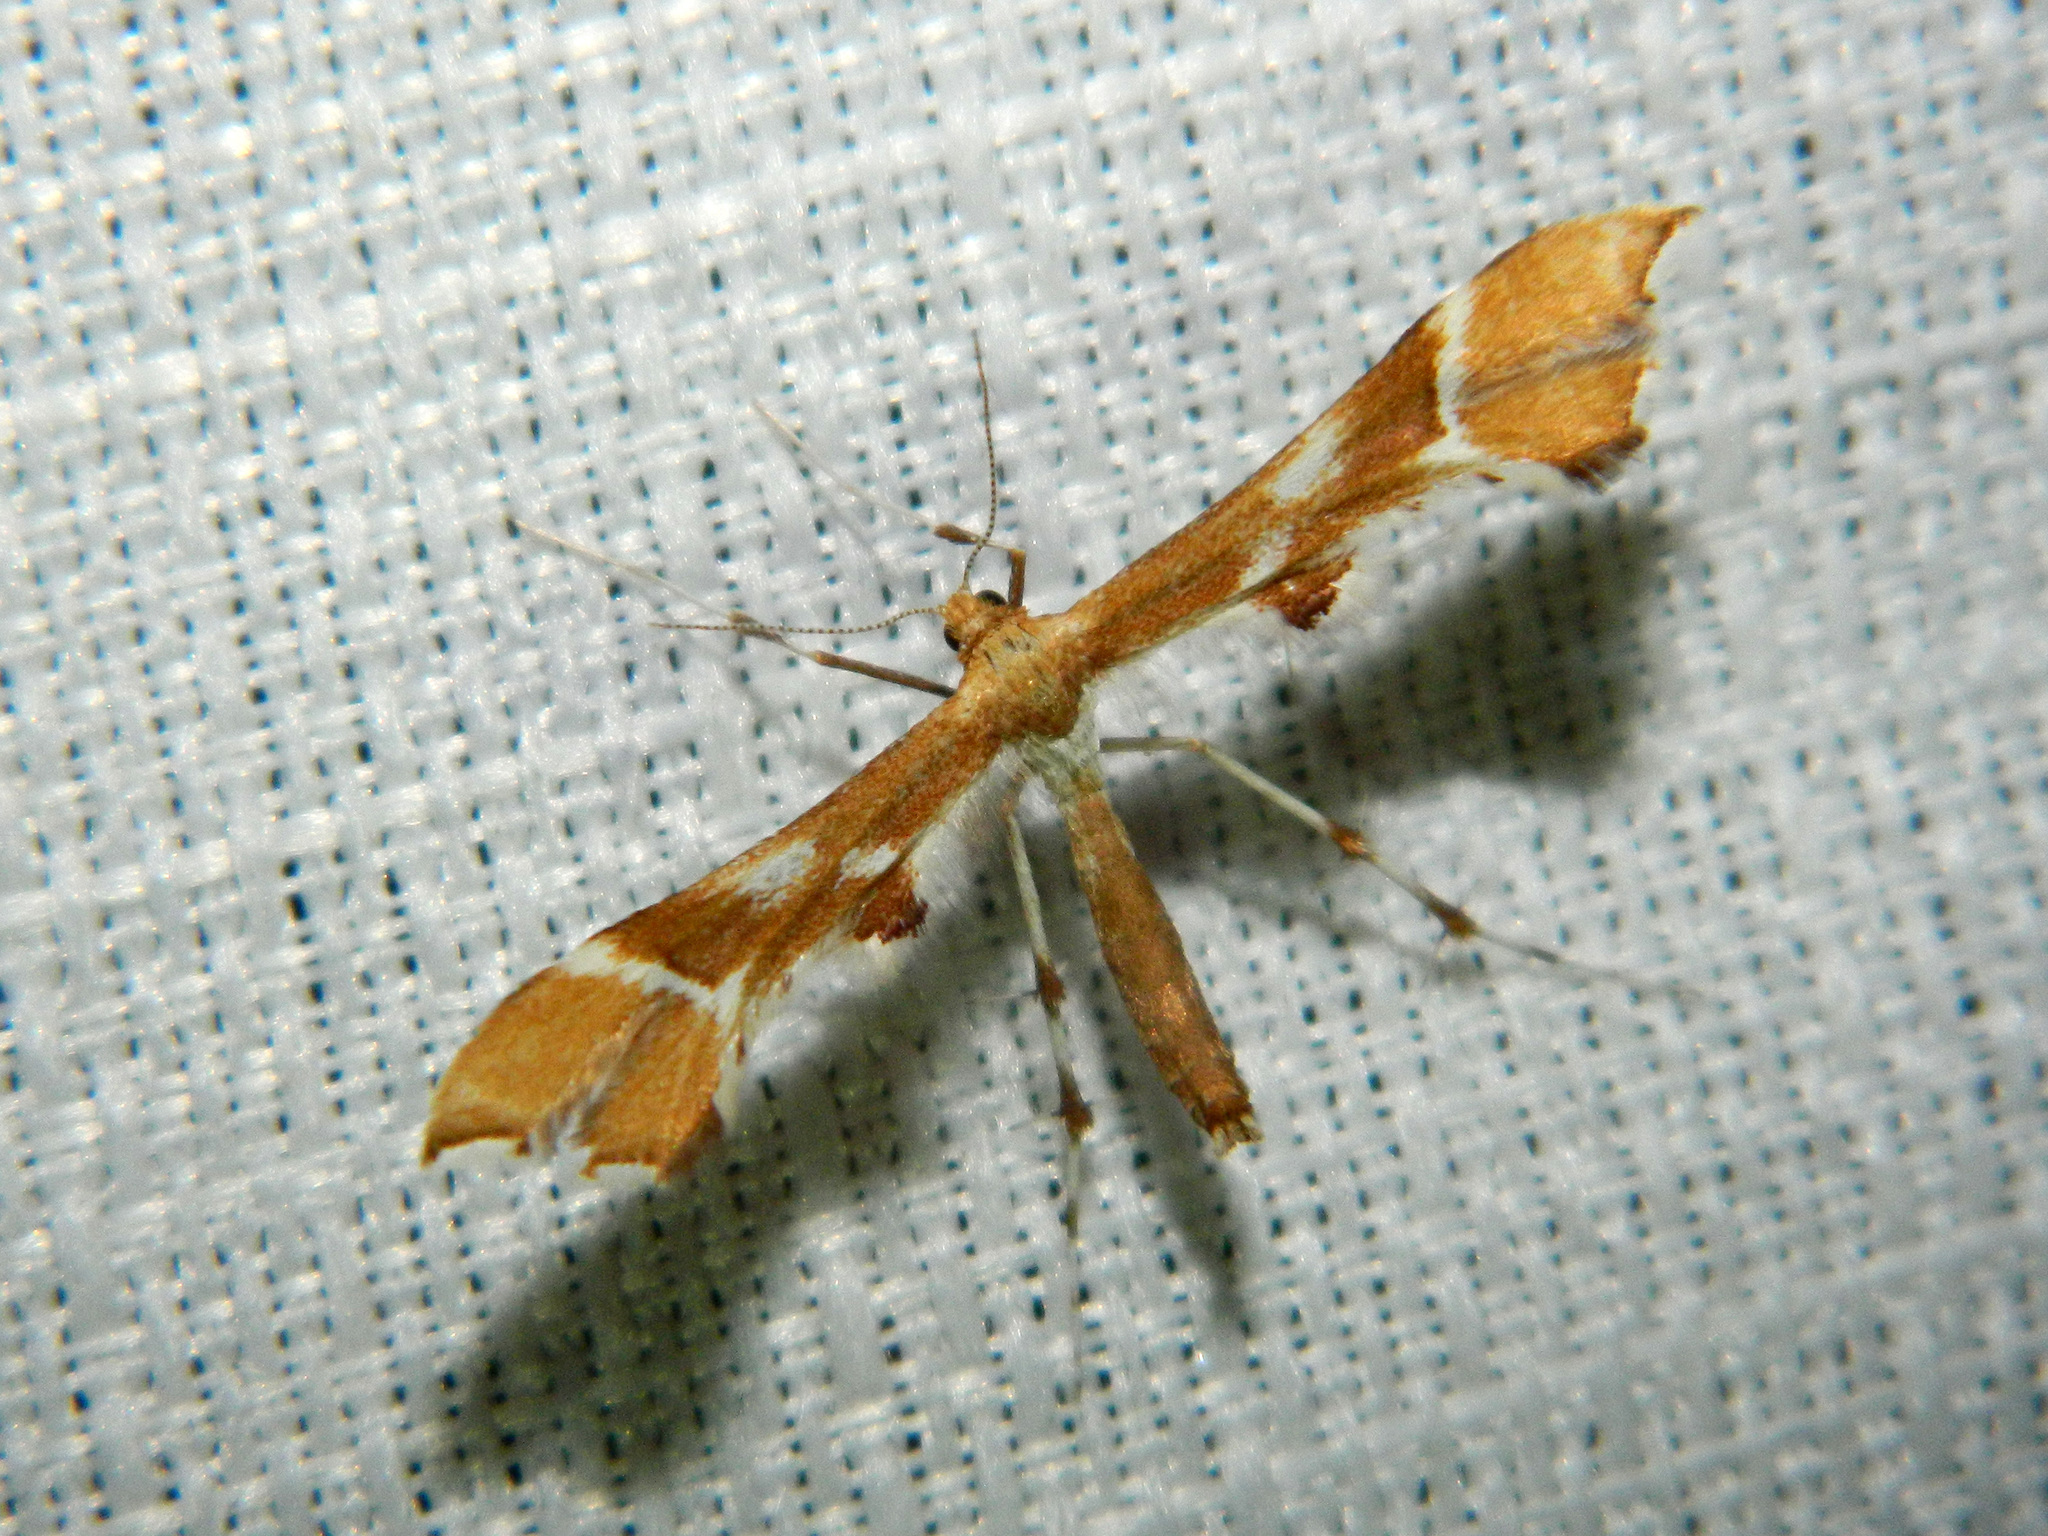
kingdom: Animalia
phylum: Arthropoda
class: Insecta
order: Lepidoptera
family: Pterophoridae
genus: Cnaemidophorus
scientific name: Cnaemidophorus rhododactyla
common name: Rose plume
